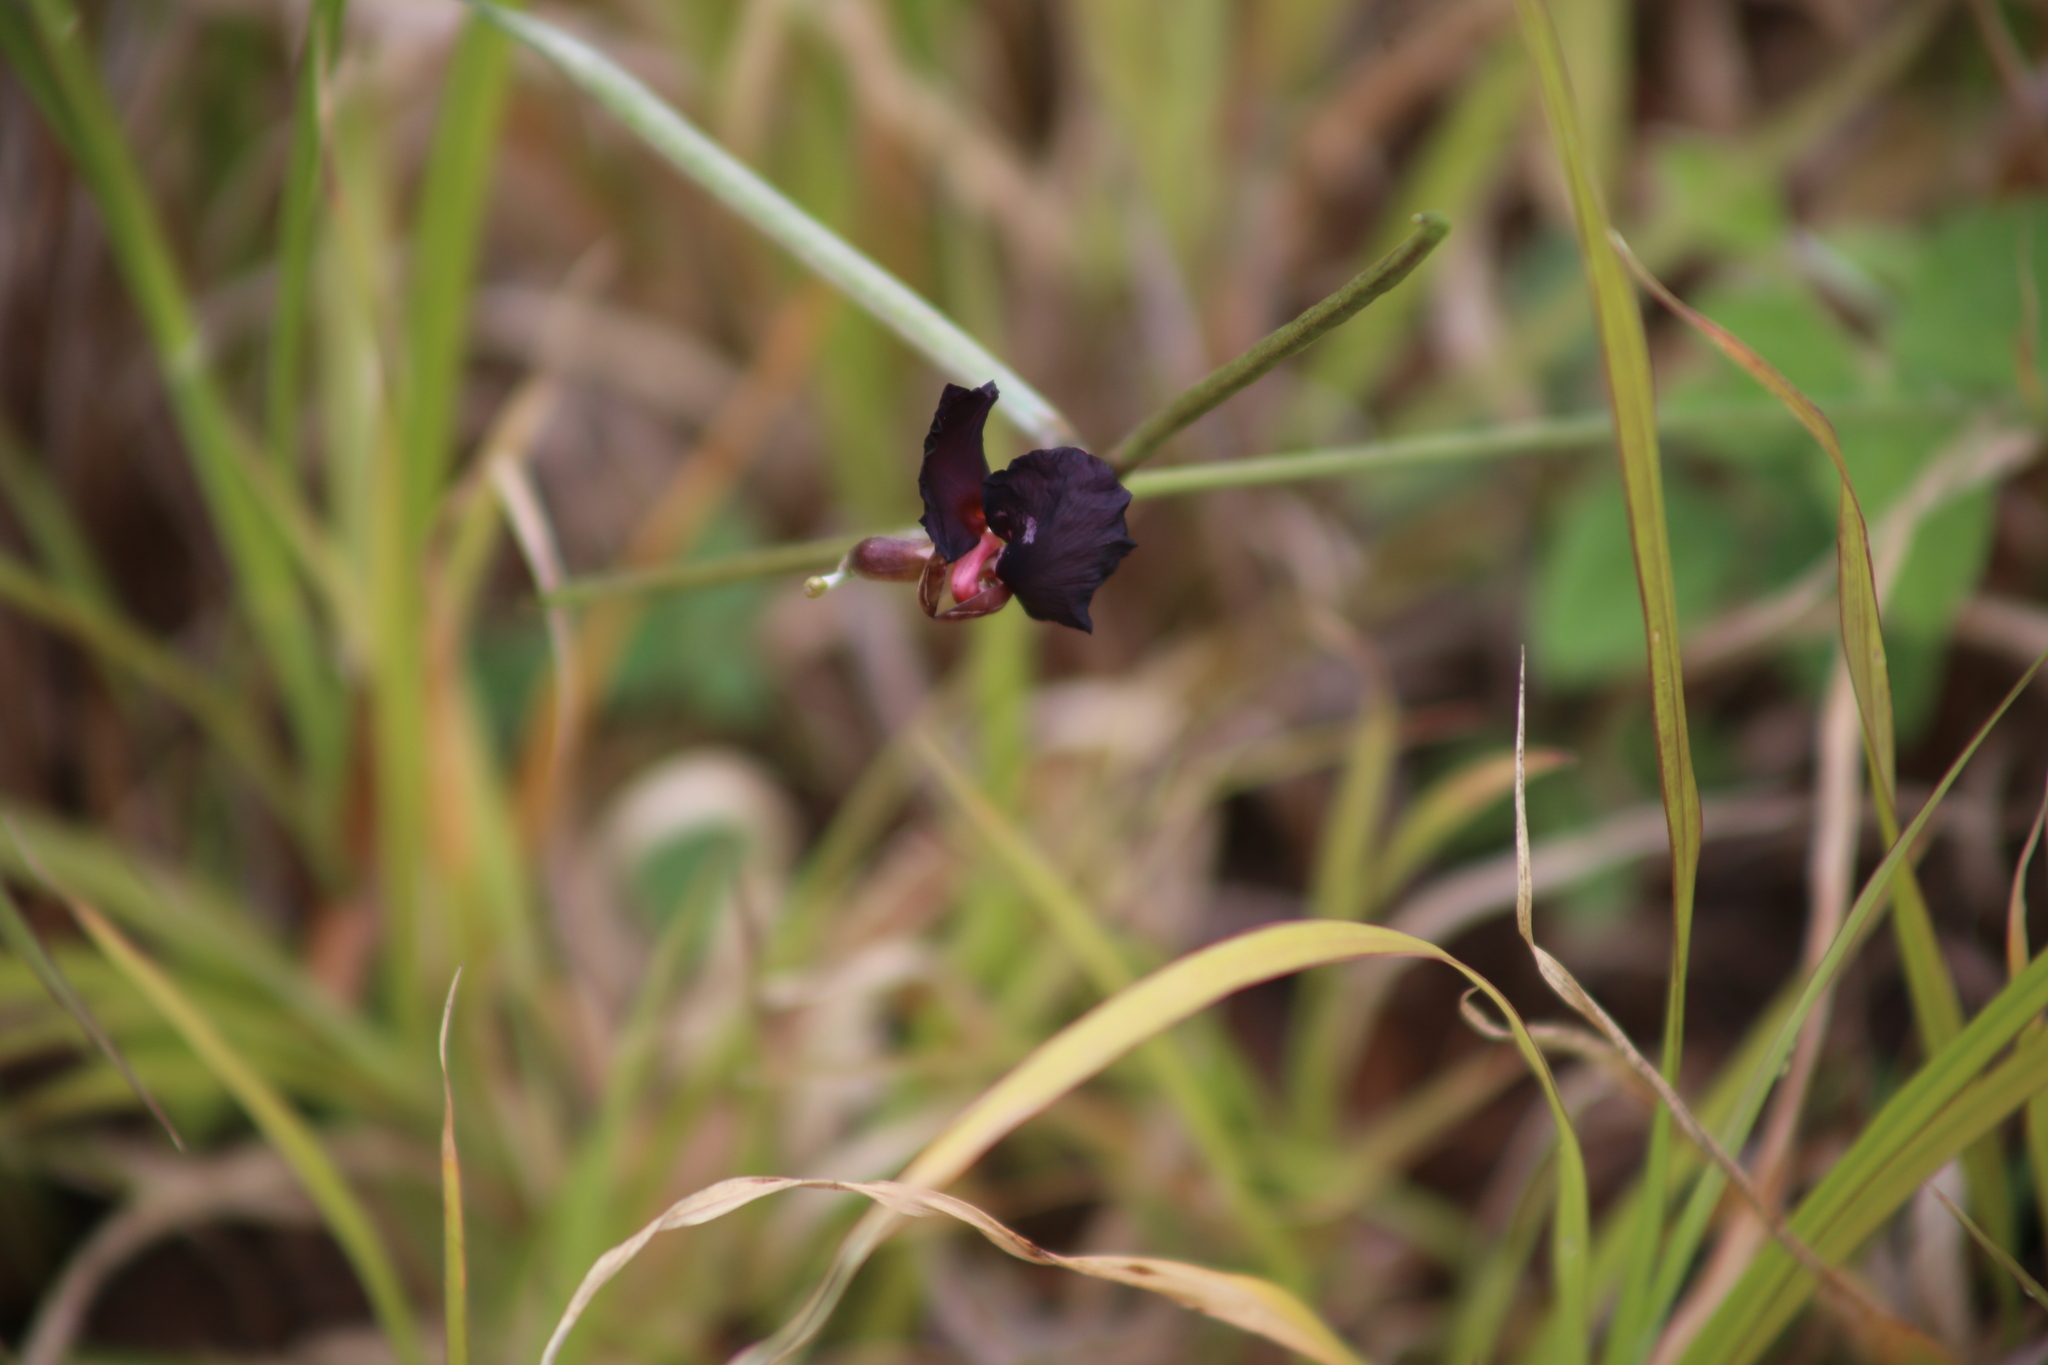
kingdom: Plantae
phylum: Tracheophyta
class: Magnoliopsida
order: Fabales
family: Fabaceae
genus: Macroptilium
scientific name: Macroptilium atropurpureum
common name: Purple bushbean
